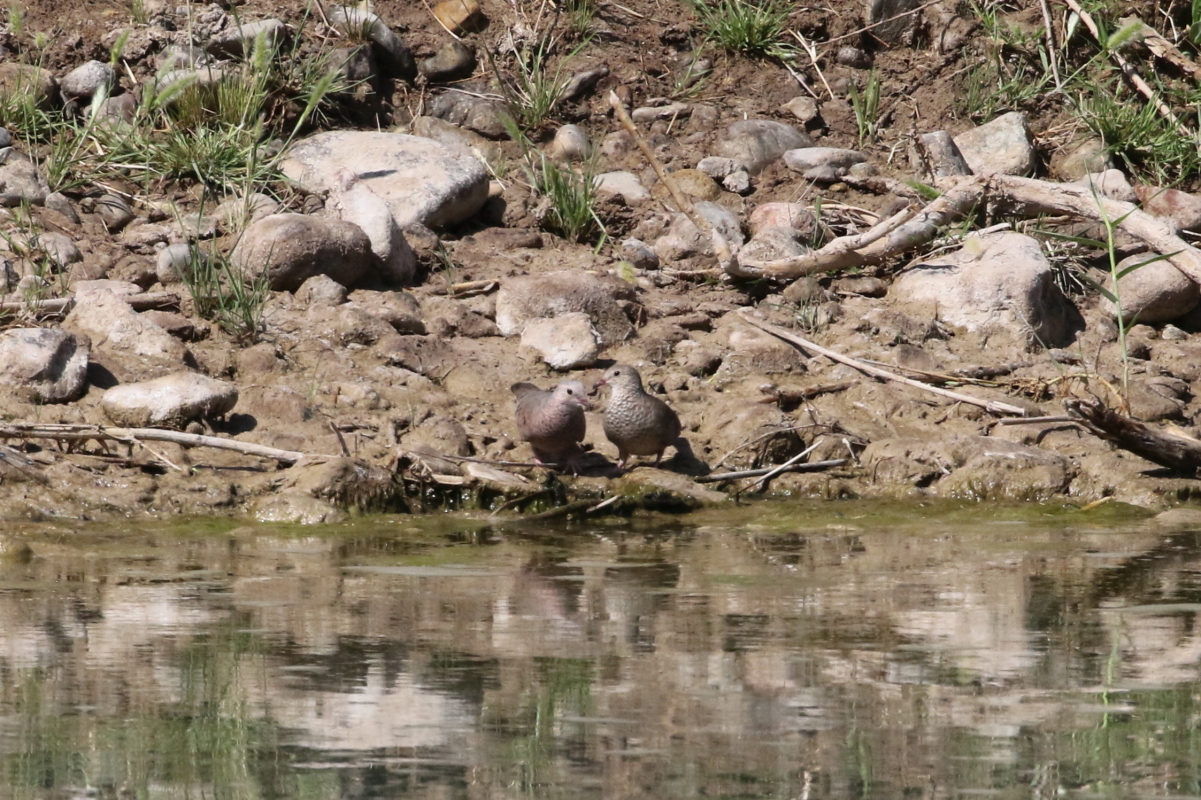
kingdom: Animalia
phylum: Chordata
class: Aves
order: Columbiformes
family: Columbidae
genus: Columbina
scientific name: Columbina passerina
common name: Common ground-dove
